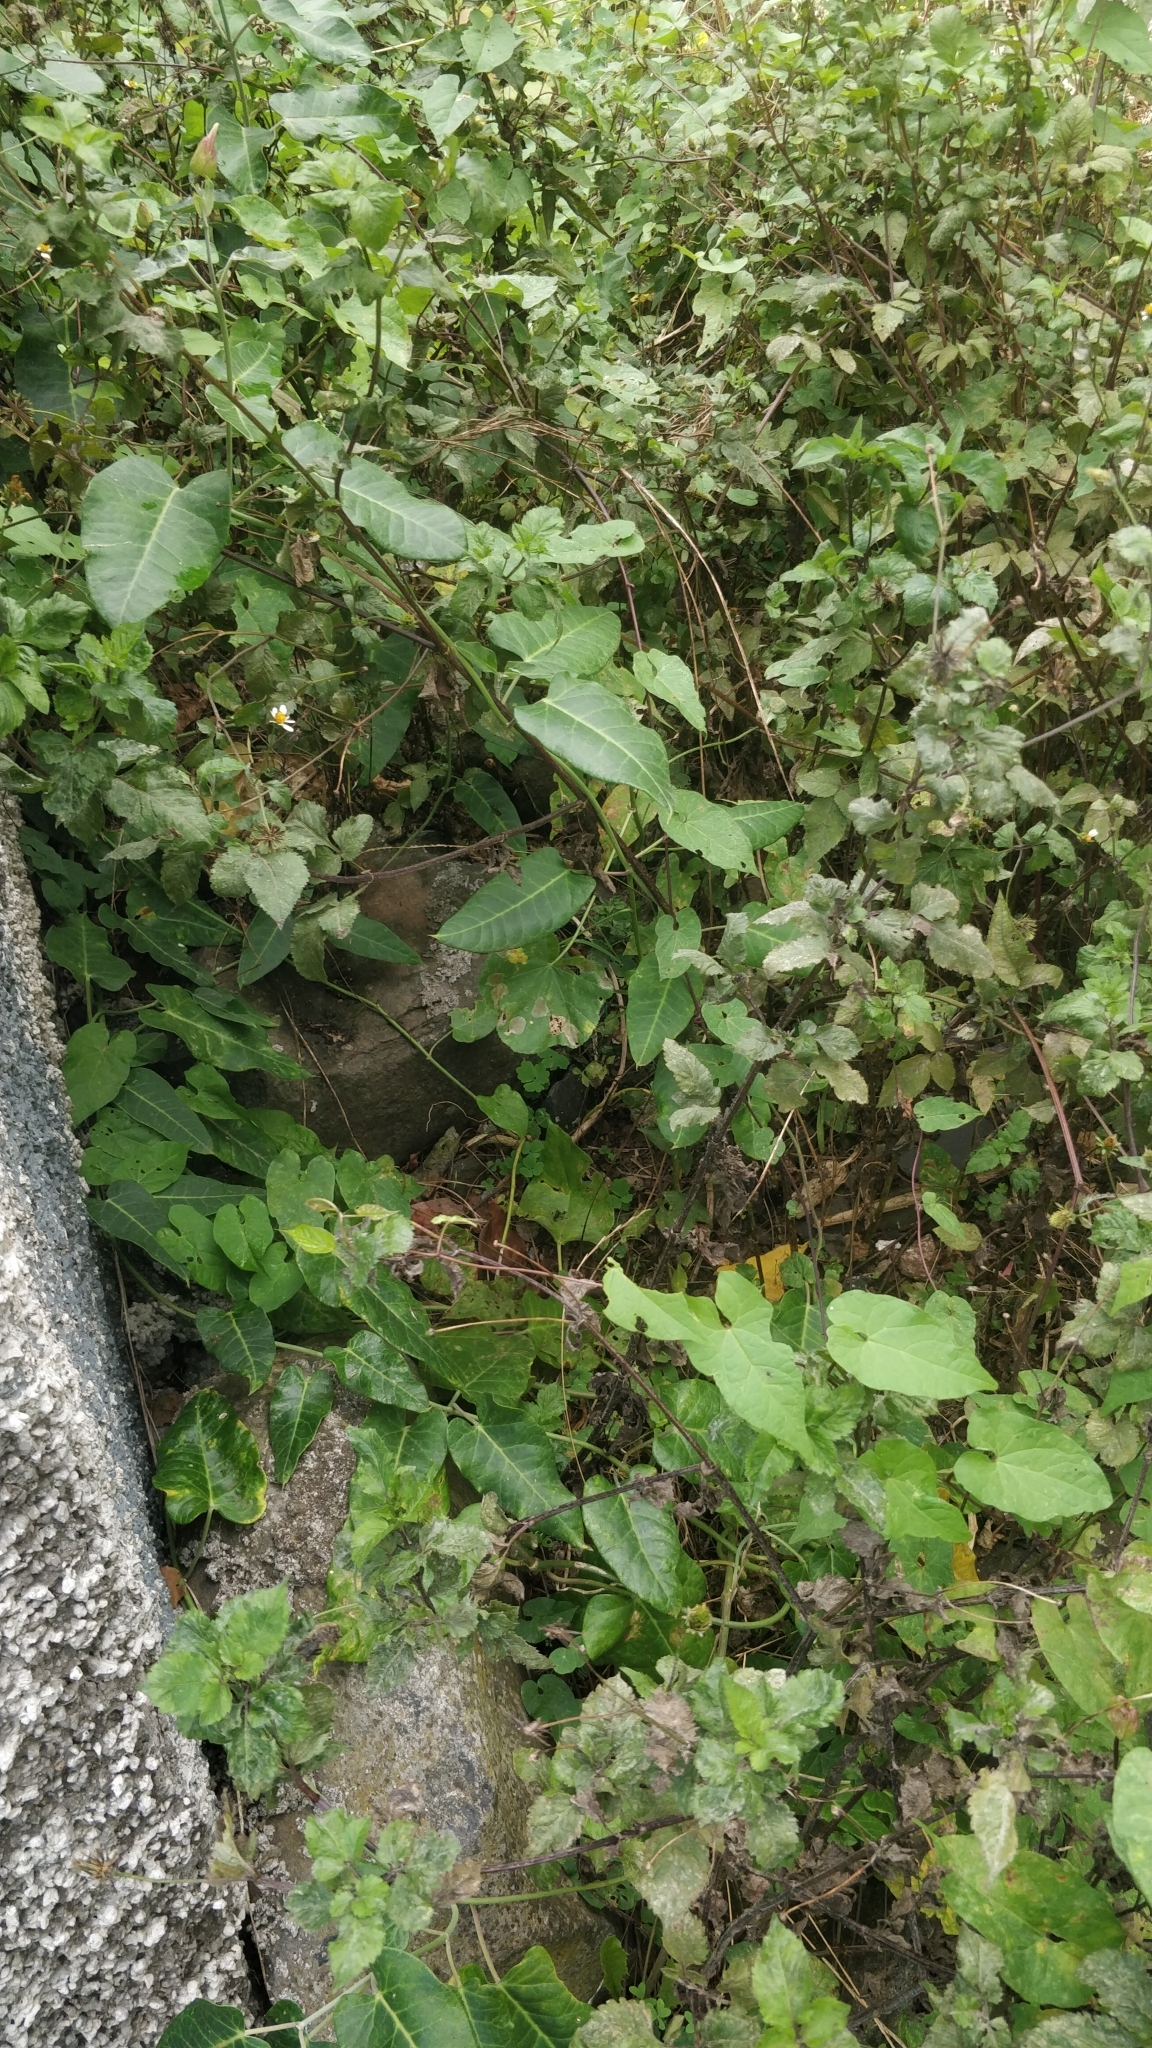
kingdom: Plantae
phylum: Tracheophyta
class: Magnoliopsida
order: Gentianales
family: Apocynaceae
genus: Araujia
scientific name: Araujia sericifera
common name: White bladderflower
